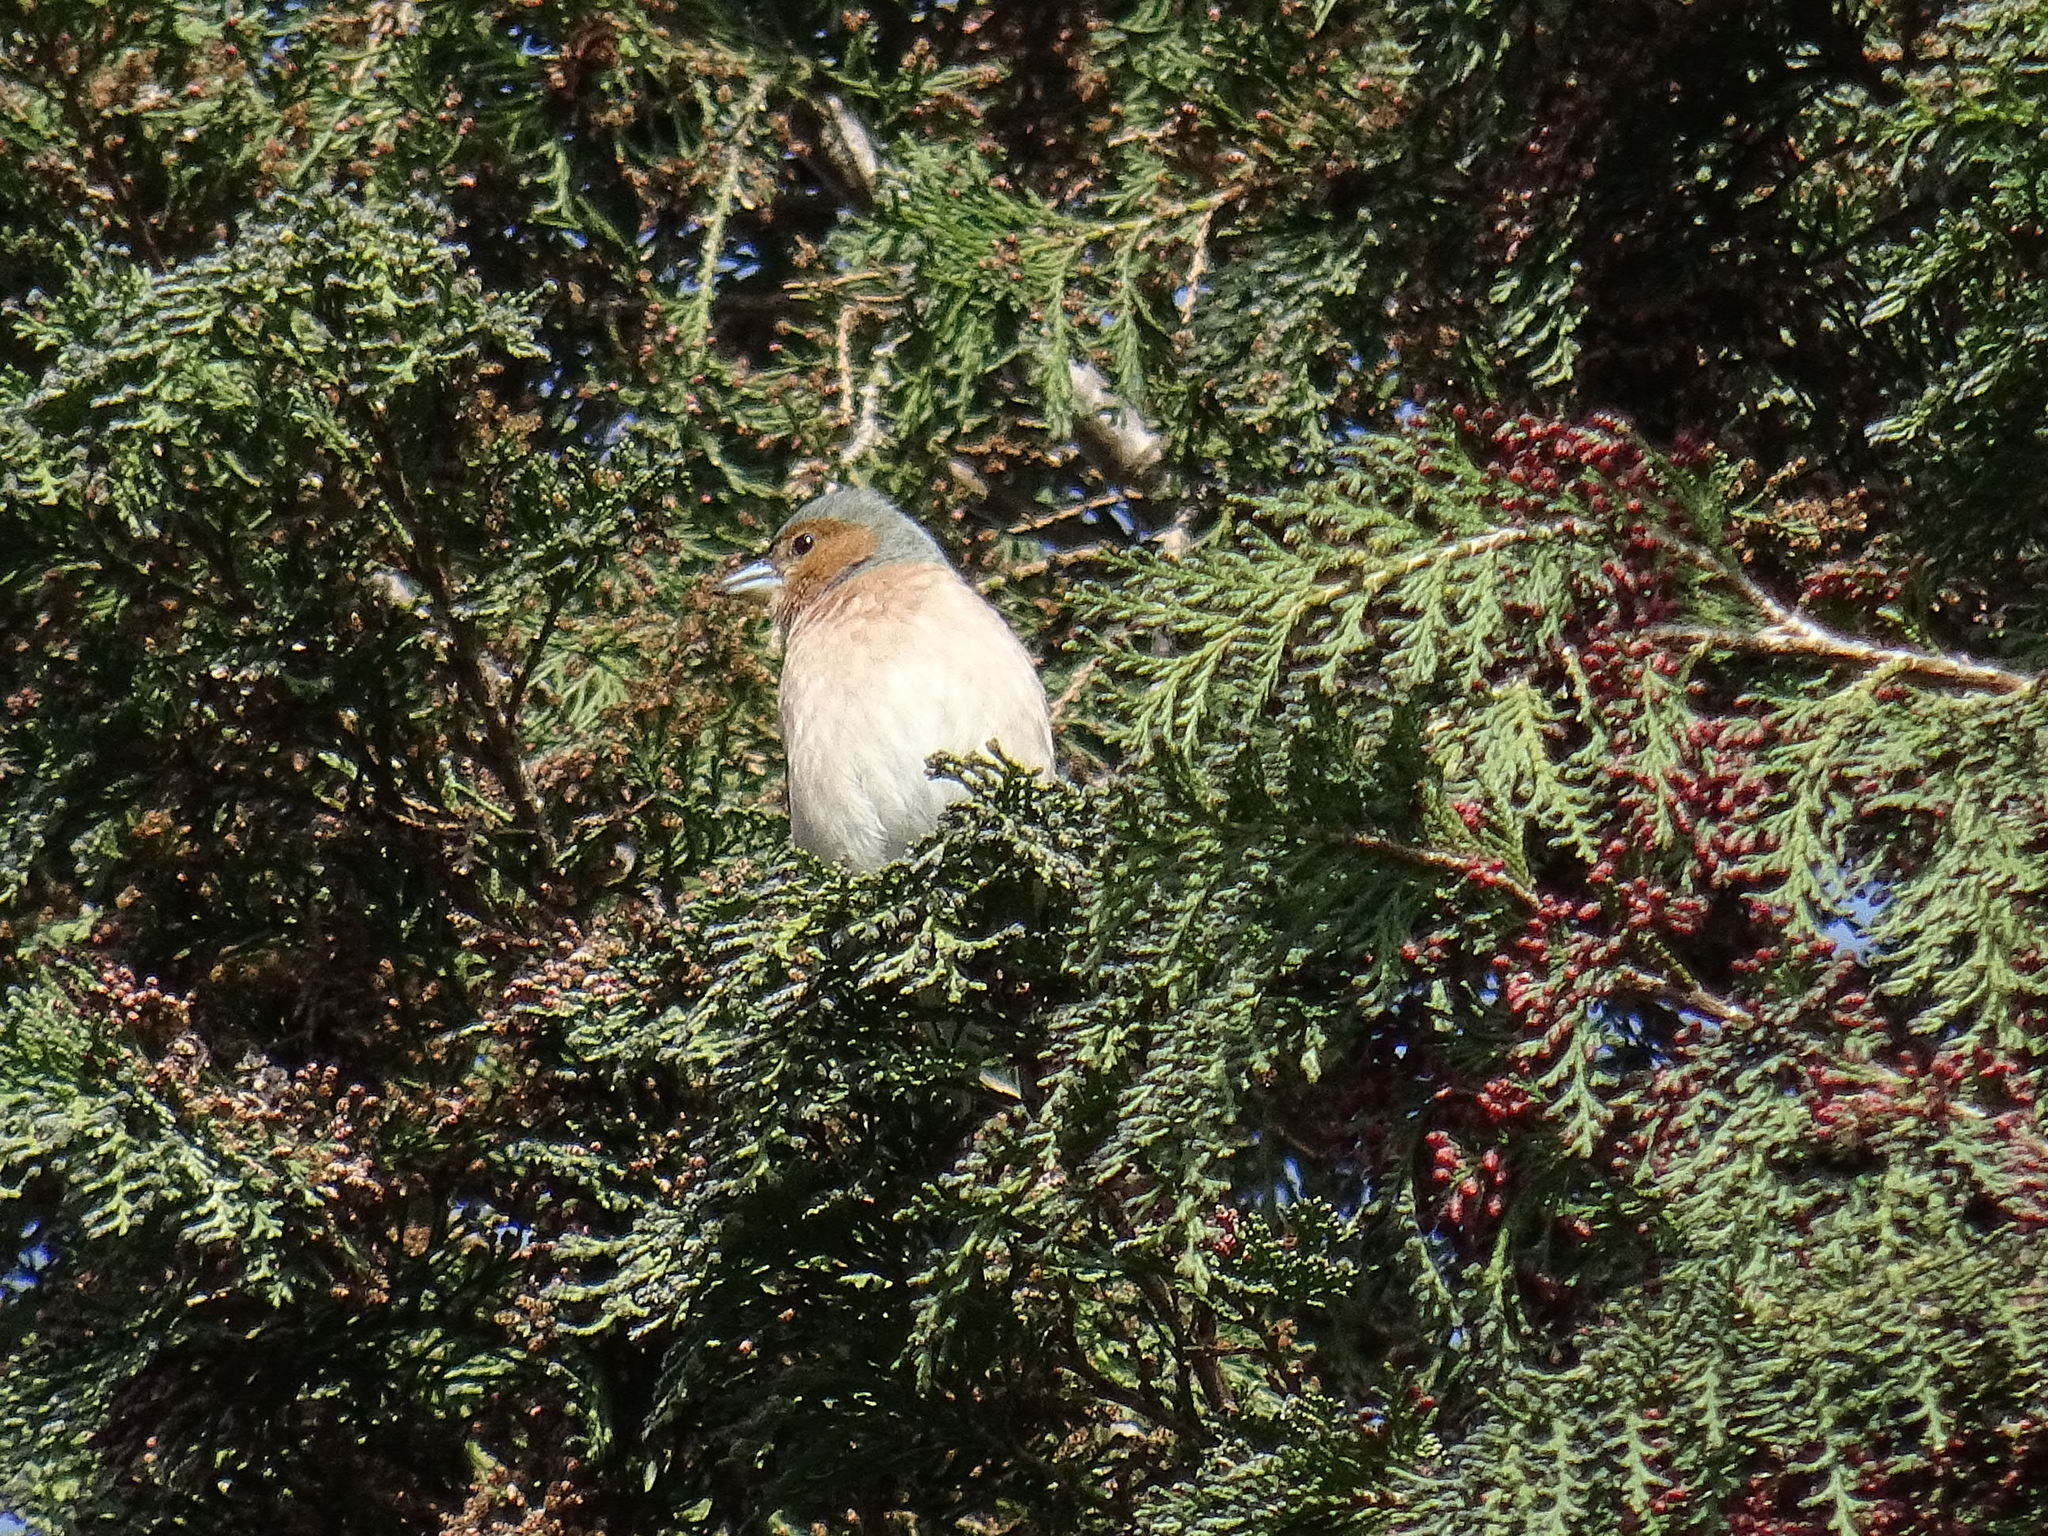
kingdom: Animalia
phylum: Chordata
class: Aves
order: Passeriformes
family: Fringillidae
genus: Fringilla
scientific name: Fringilla coelebs
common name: Common chaffinch
